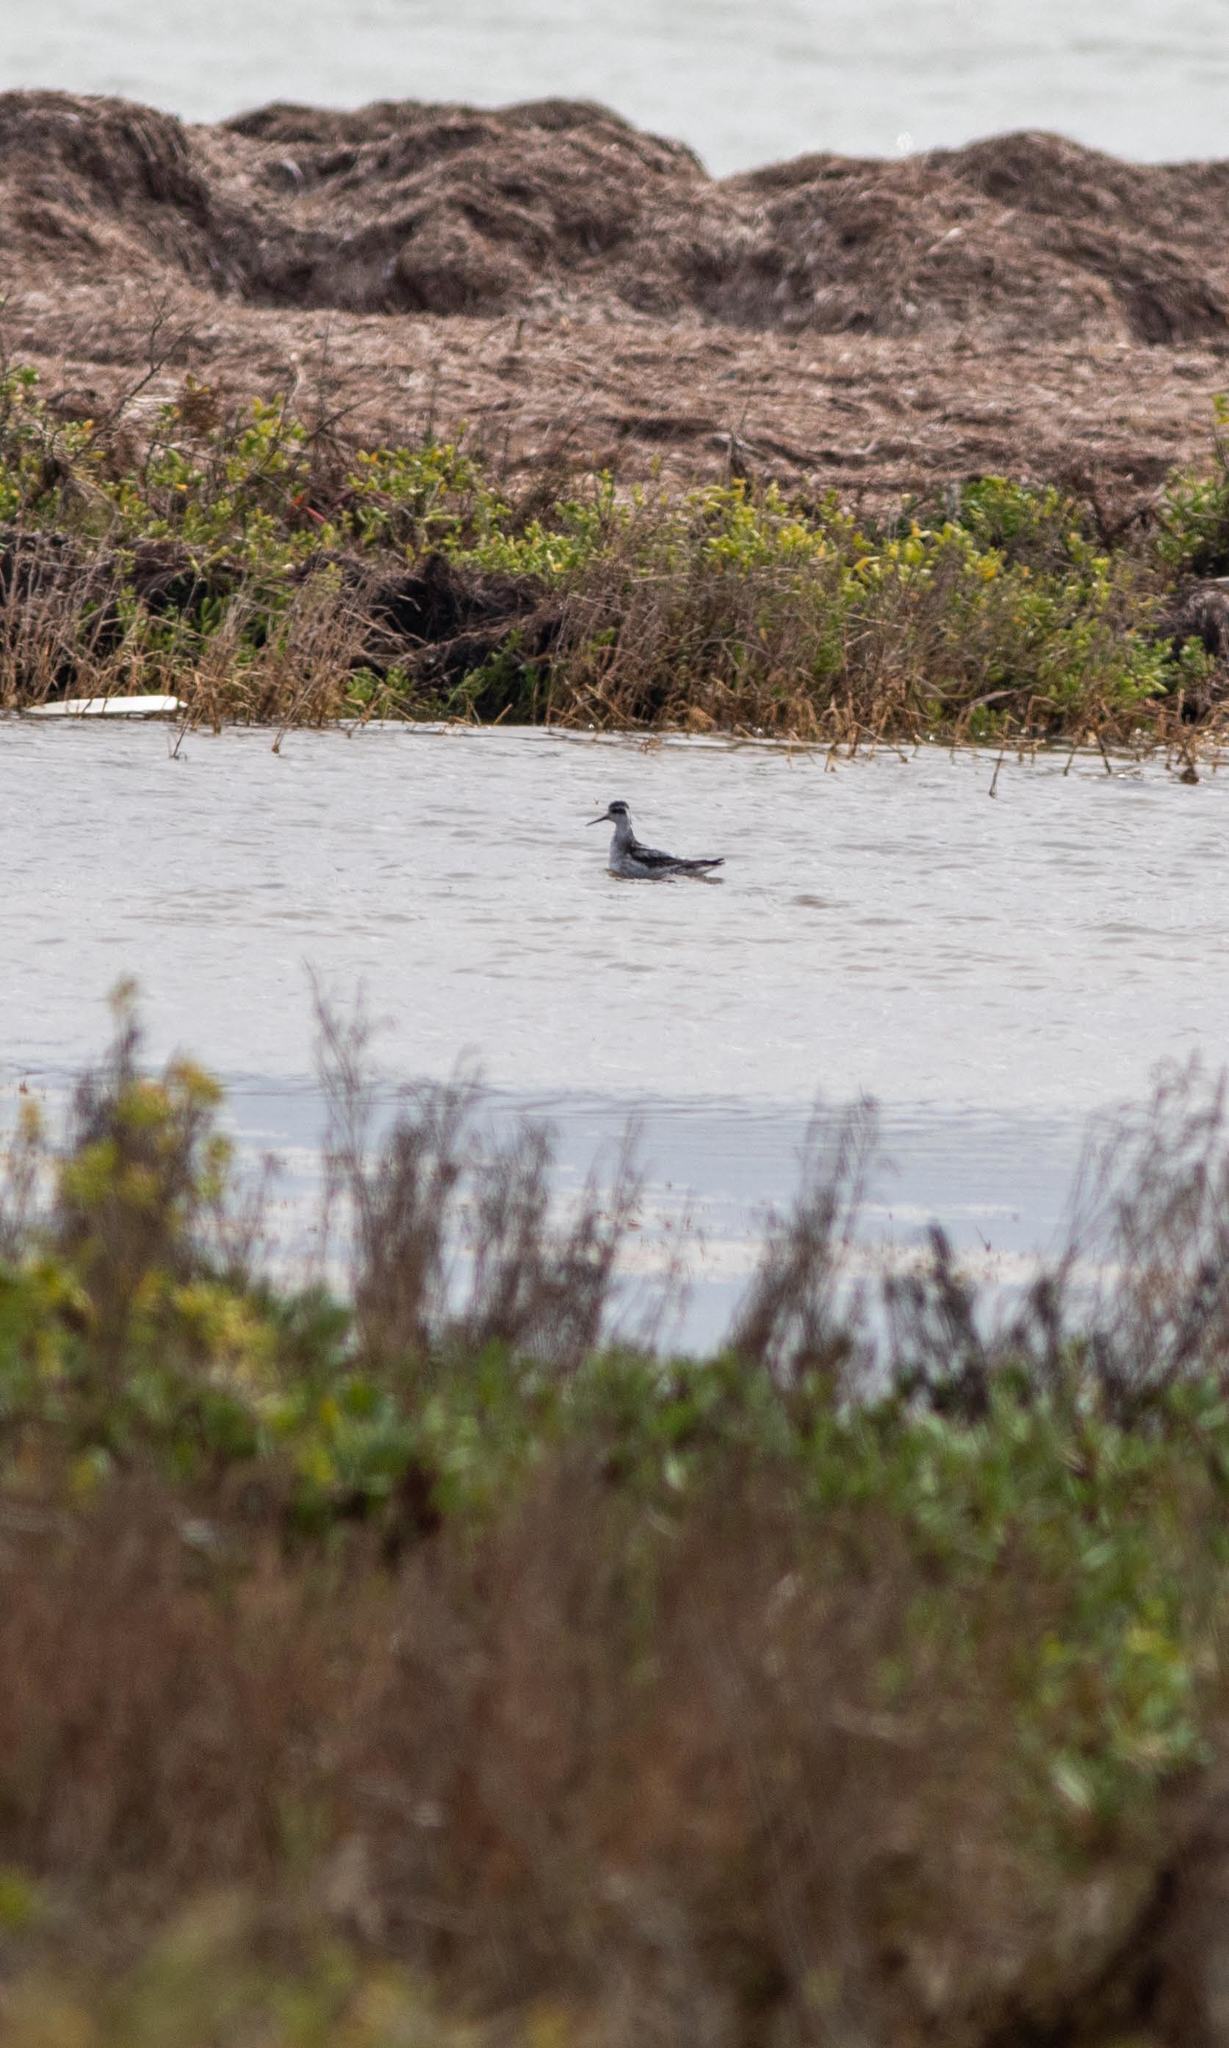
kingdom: Animalia
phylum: Chordata
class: Aves
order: Charadriiformes
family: Scolopacidae
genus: Phalaropus
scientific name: Phalaropus lobatus
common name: Red-necked phalarope
